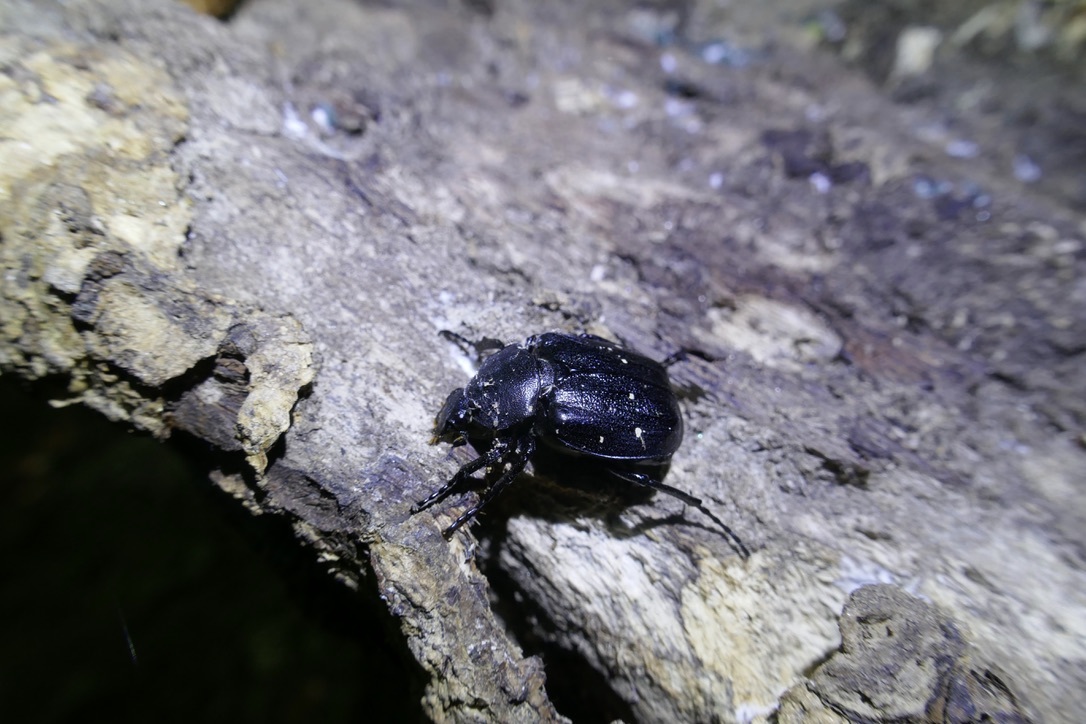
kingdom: Animalia
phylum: Arthropoda
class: Insecta
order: Coleoptera
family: Scarabaeidae
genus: Gnorimus
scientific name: Gnorimus variabilis
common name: Variable chafer
